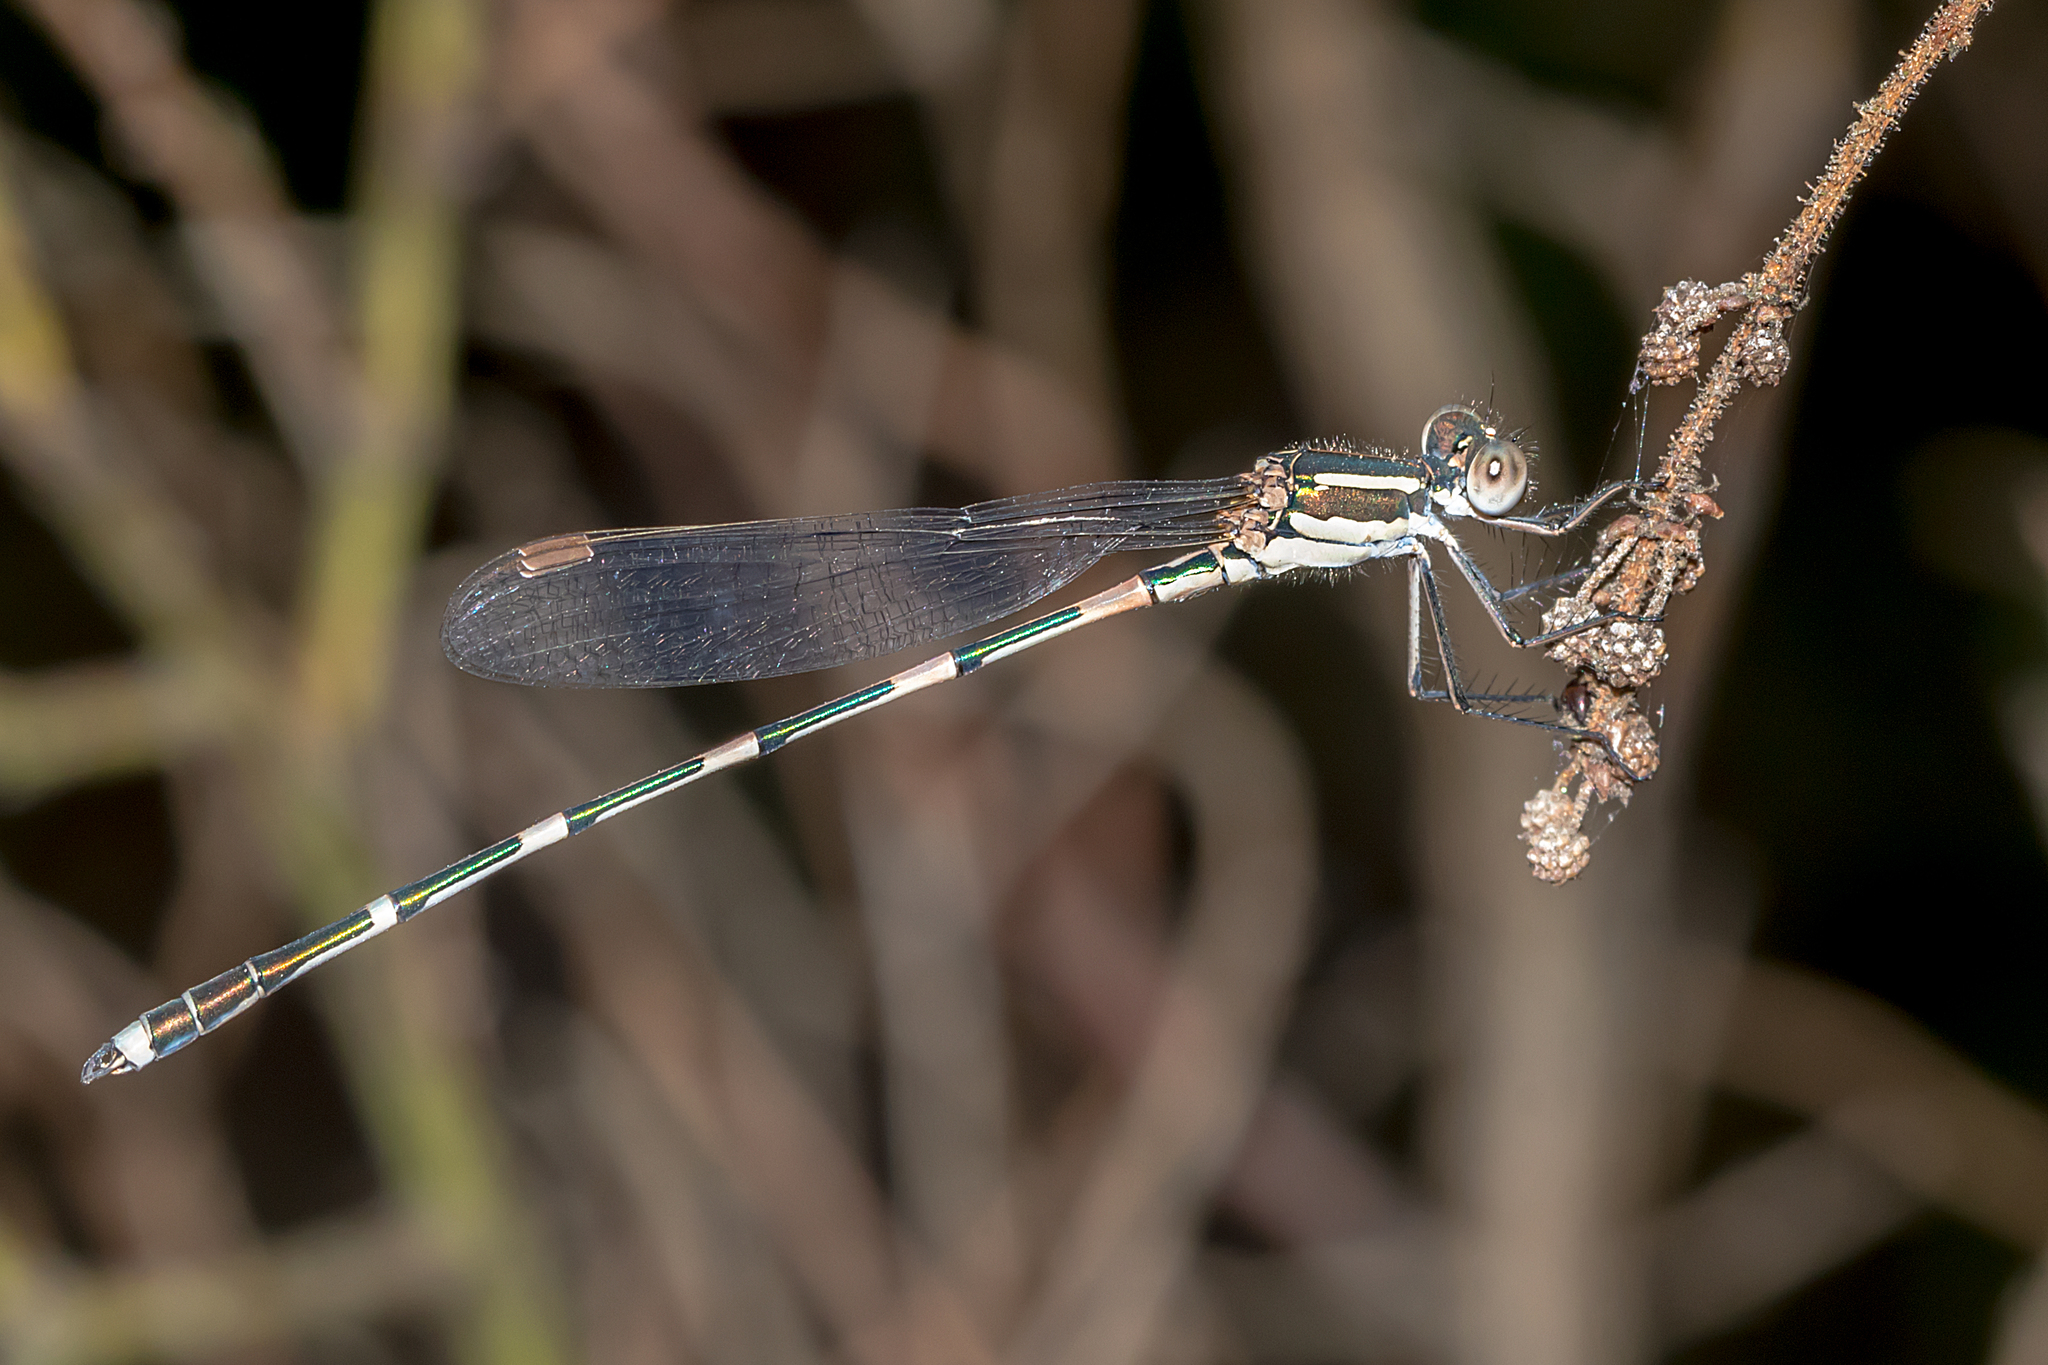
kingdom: Animalia
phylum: Arthropoda
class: Insecta
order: Odonata
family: Lestidae
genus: Austrolestes
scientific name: Austrolestes leda
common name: Wandering ringtail
